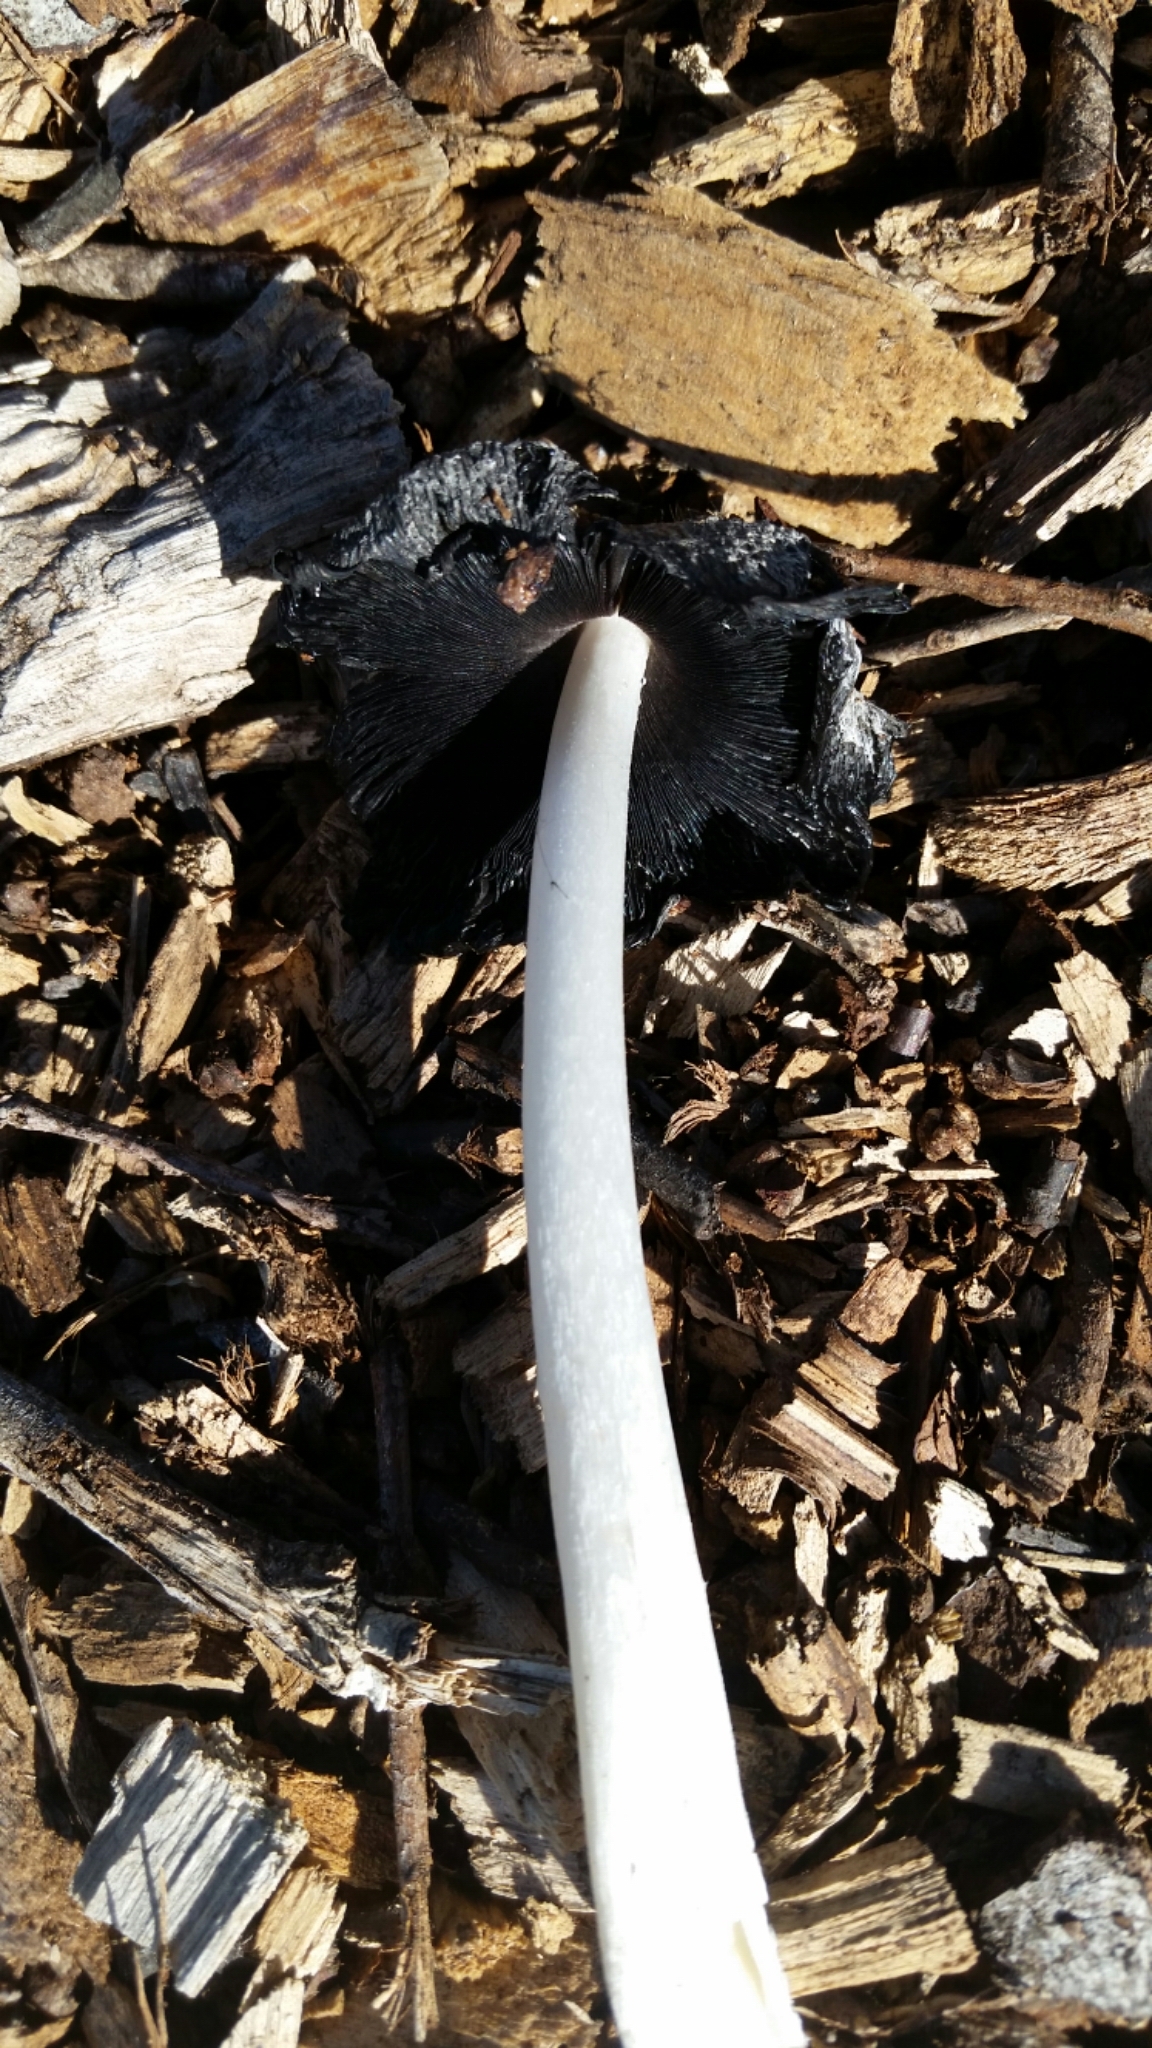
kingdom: Fungi
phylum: Basidiomycota
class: Agaricomycetes
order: Agaricales
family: Psathyrellaceae
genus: Coprinopsis
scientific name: Coprinopsis lagopus
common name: Hare'sfoot inkcap
